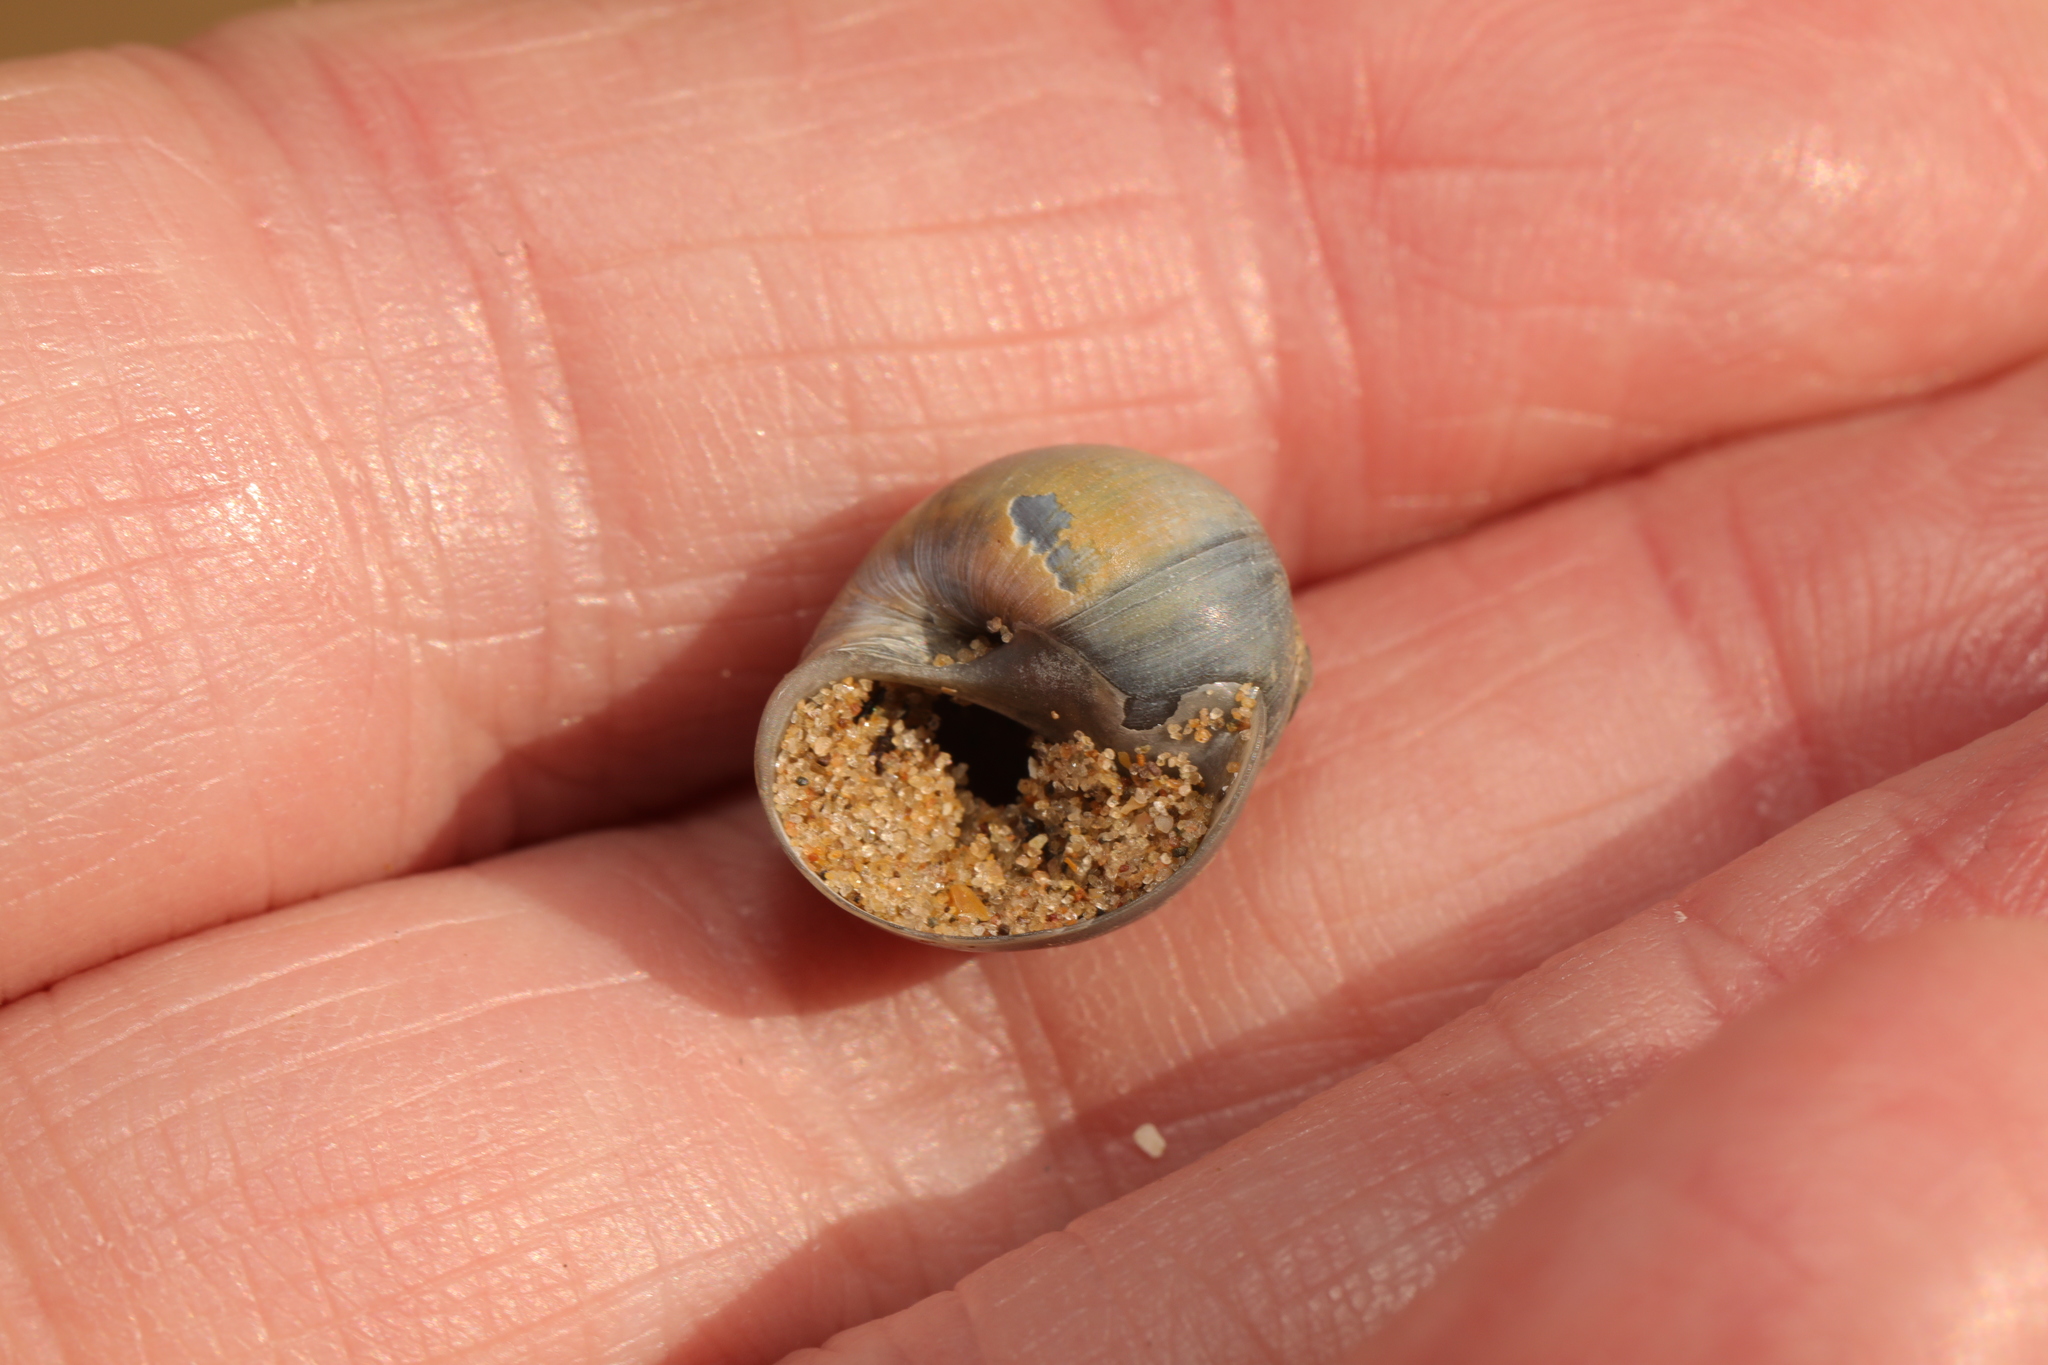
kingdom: Animalia
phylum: Mollusca
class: Gastropoda
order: Littorinimorpha
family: Naticidae
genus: Euspira
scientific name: Euspira catena
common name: Necklace shell
